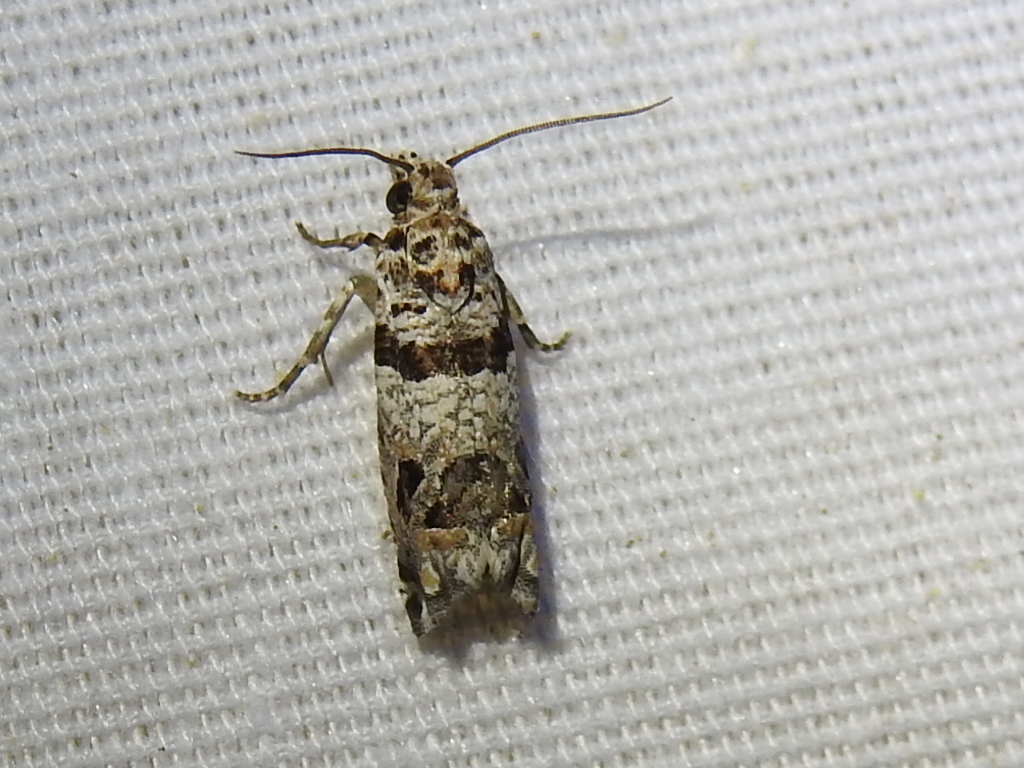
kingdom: Animalia
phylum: Arthropoda
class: Insecta
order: Lepidoptera
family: Tortricidae
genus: Sonia
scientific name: Sonia vovana
